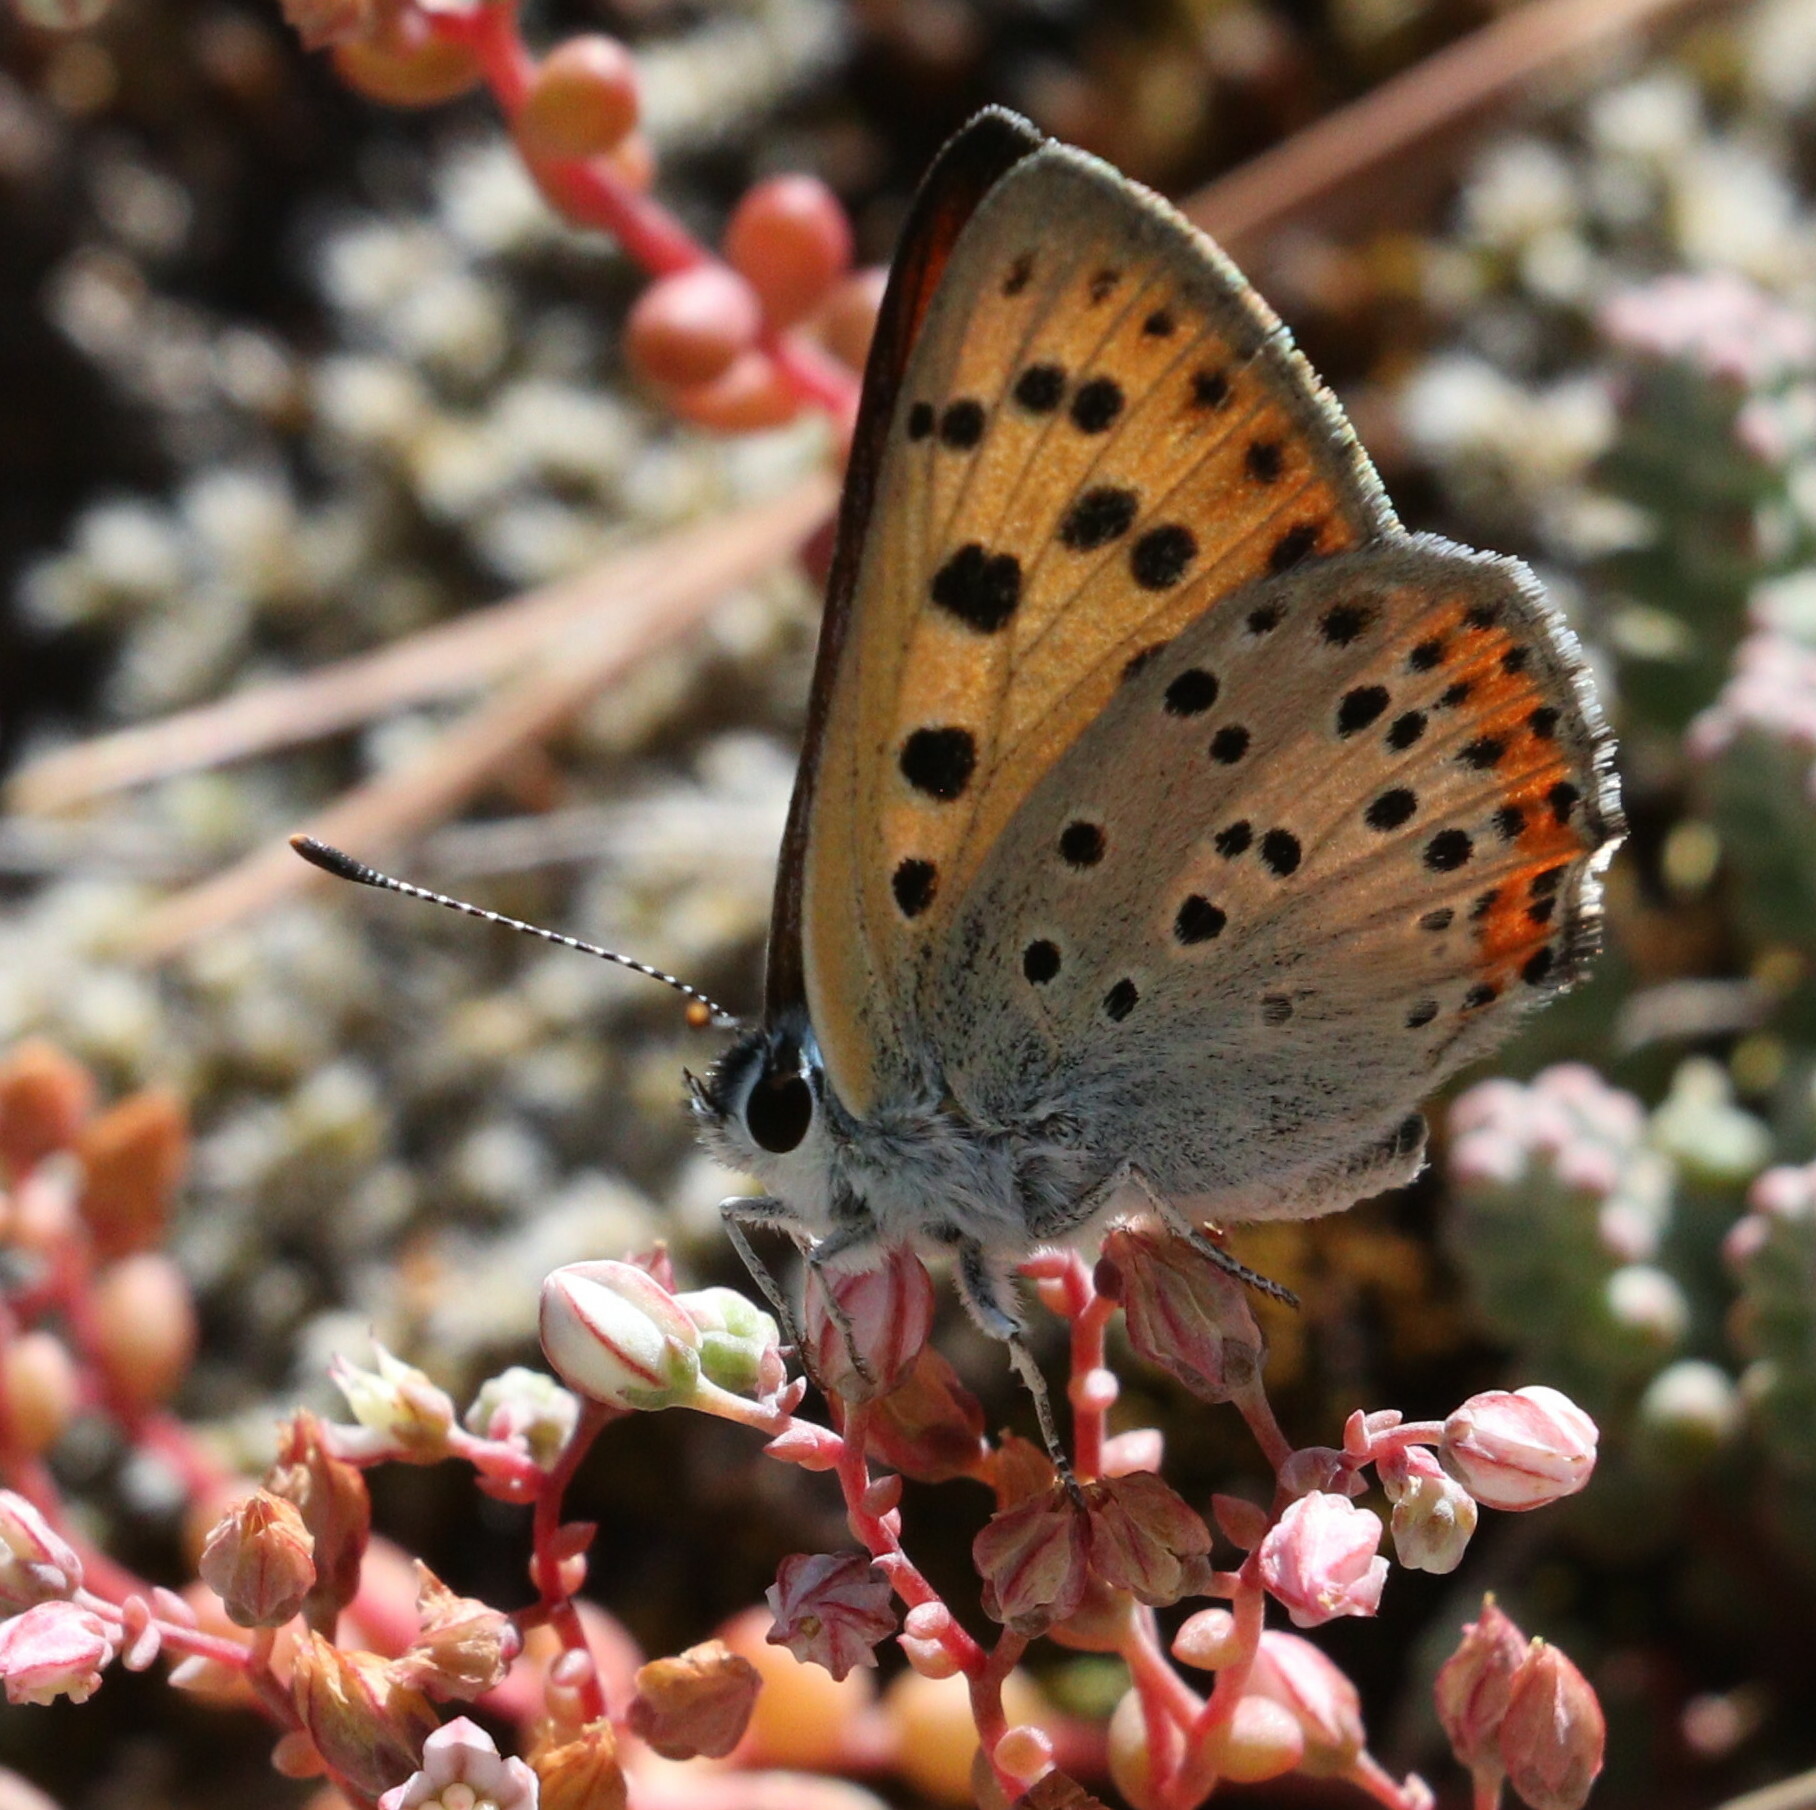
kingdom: Animalia
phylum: Arthropoda
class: Insecta
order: Lepidoptera
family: Lycaenidae
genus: Lycaena
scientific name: Lycaena alciphron
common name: Purple-shot copper
